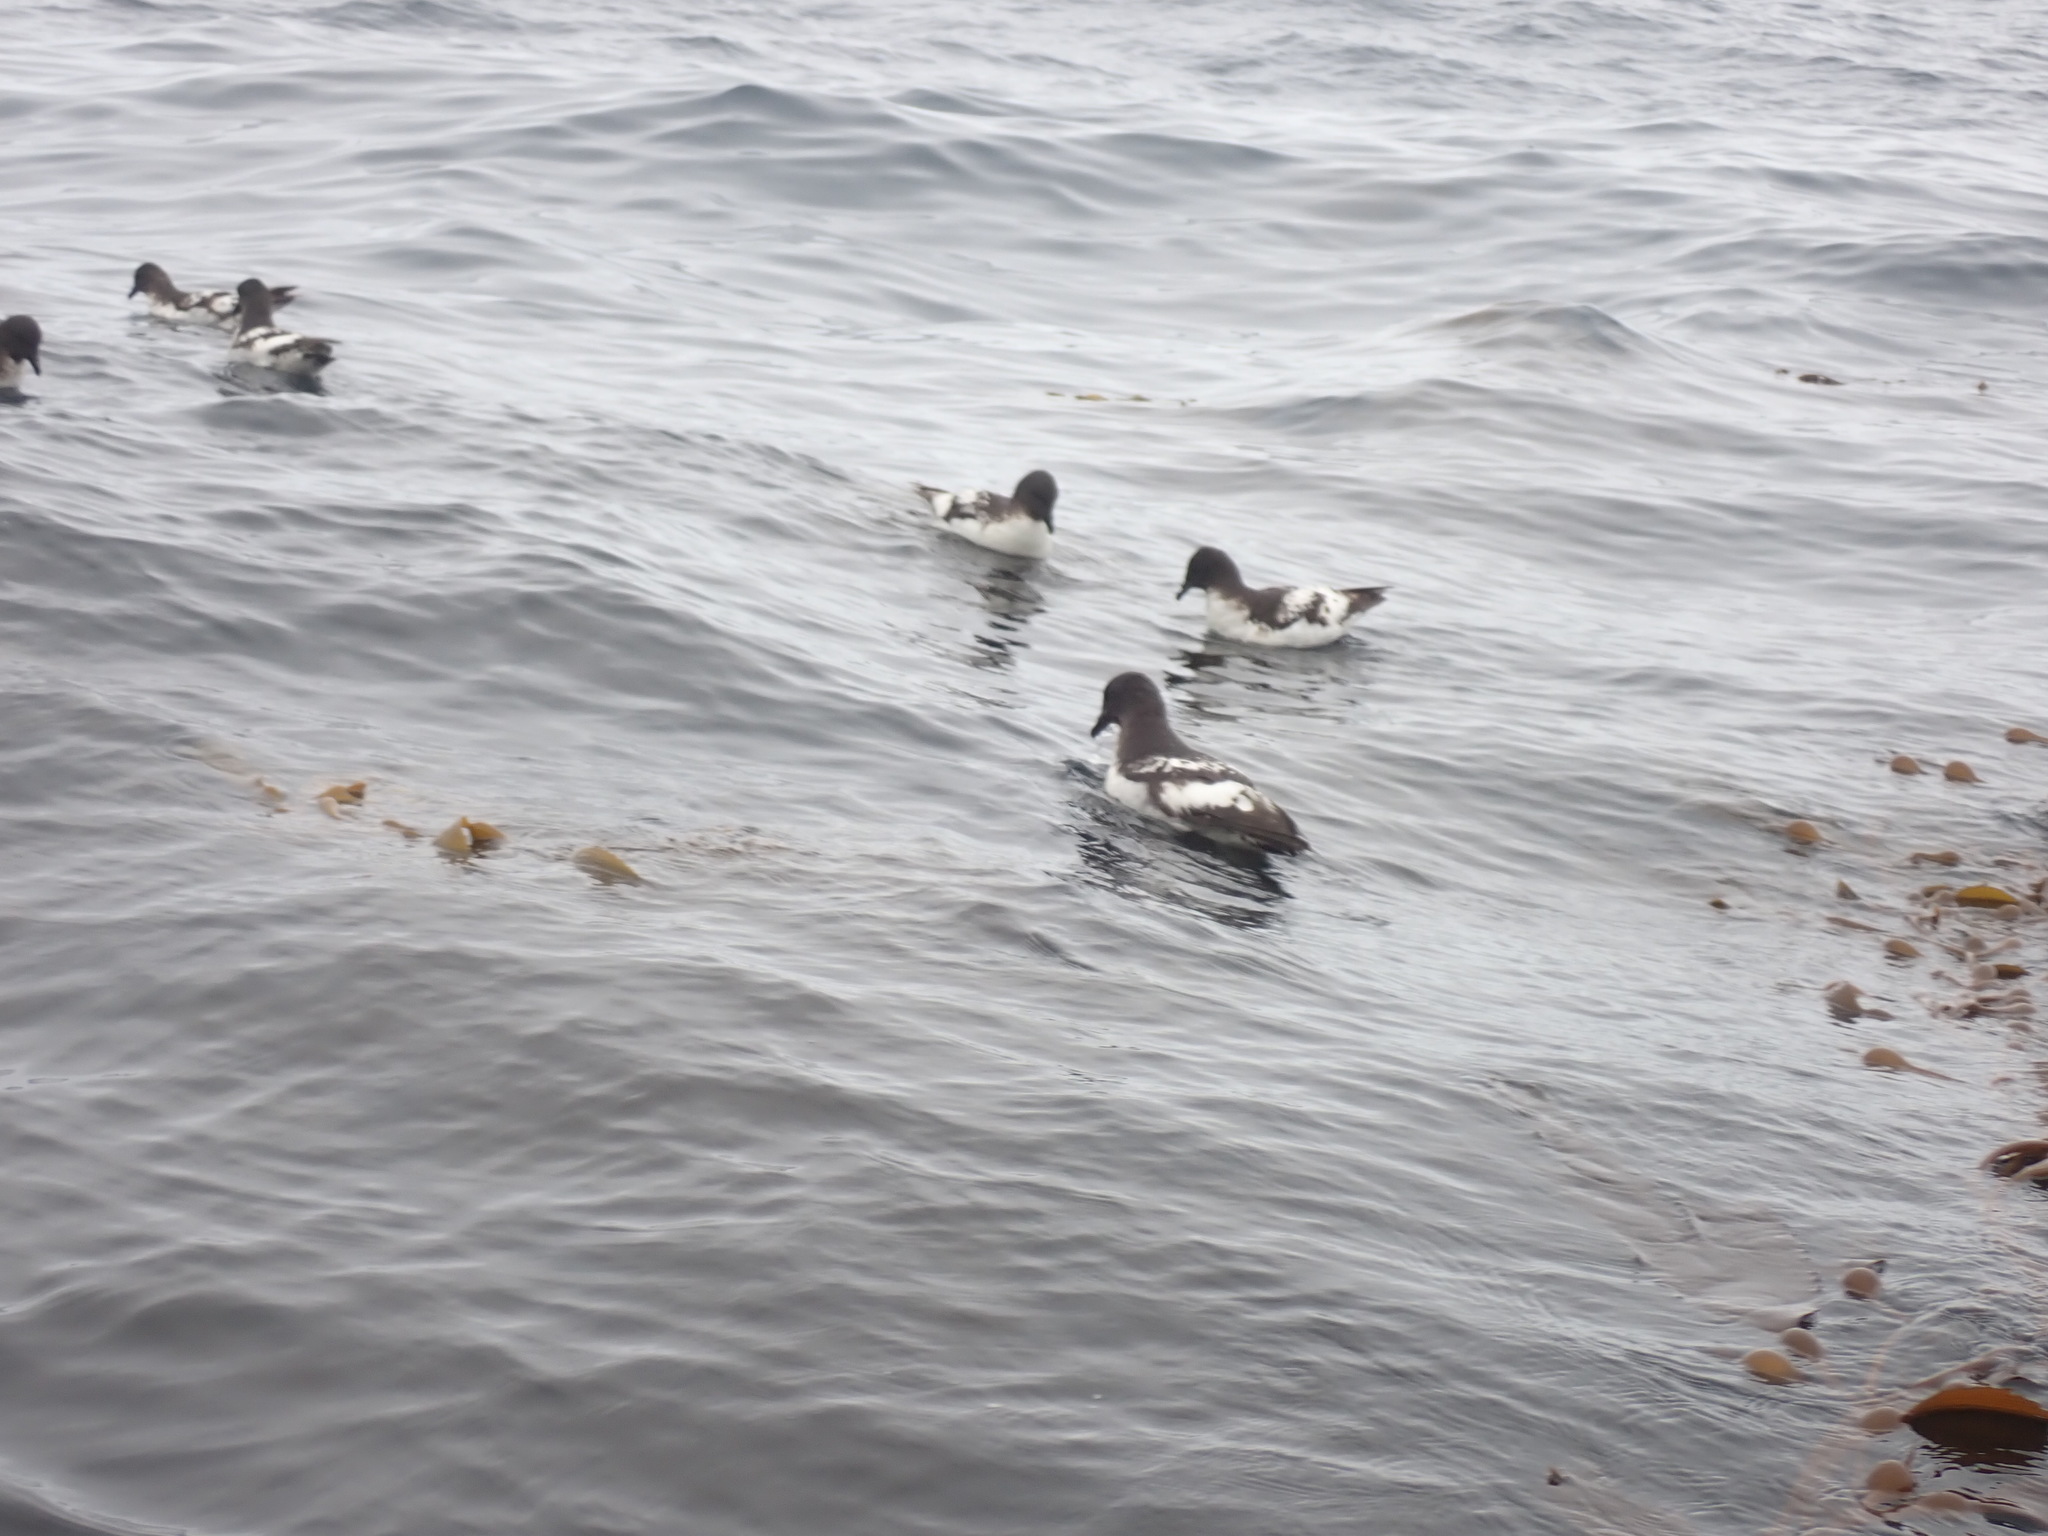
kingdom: Animalia
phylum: Chordata
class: Aves
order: Procellariiformes
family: Procellariidae
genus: Daption
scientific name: Daption capense
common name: Cape petrel
